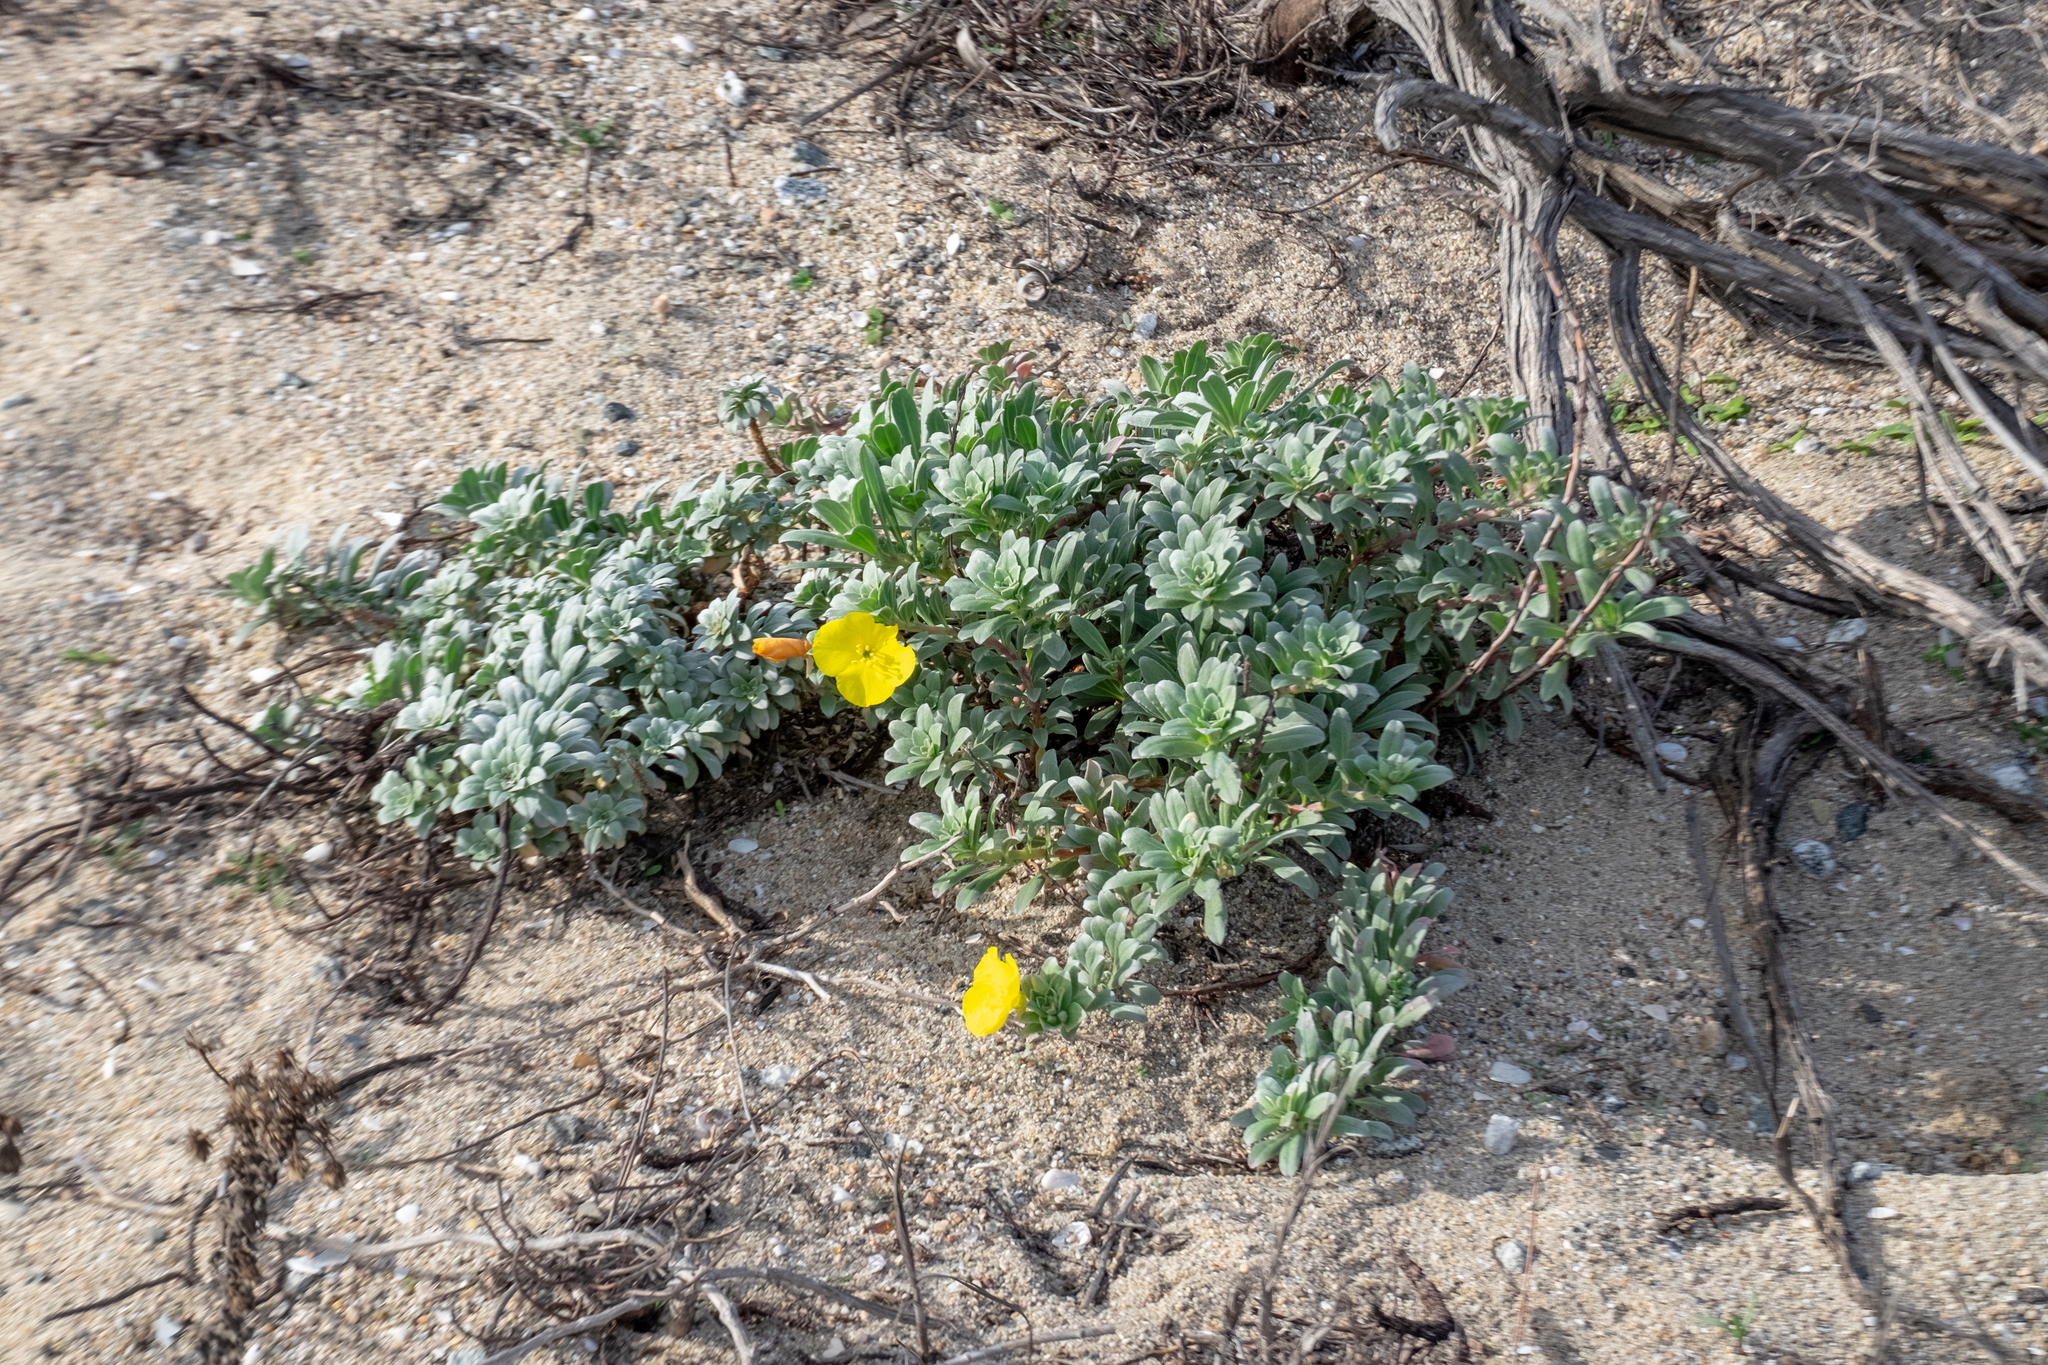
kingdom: Plantae
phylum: Tracheophyta
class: Magnoliopsida
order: Myrtales
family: Onagraceae
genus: Camissoniopsis
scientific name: Camissoniopsis cheiranthifolia
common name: Beach suncup
